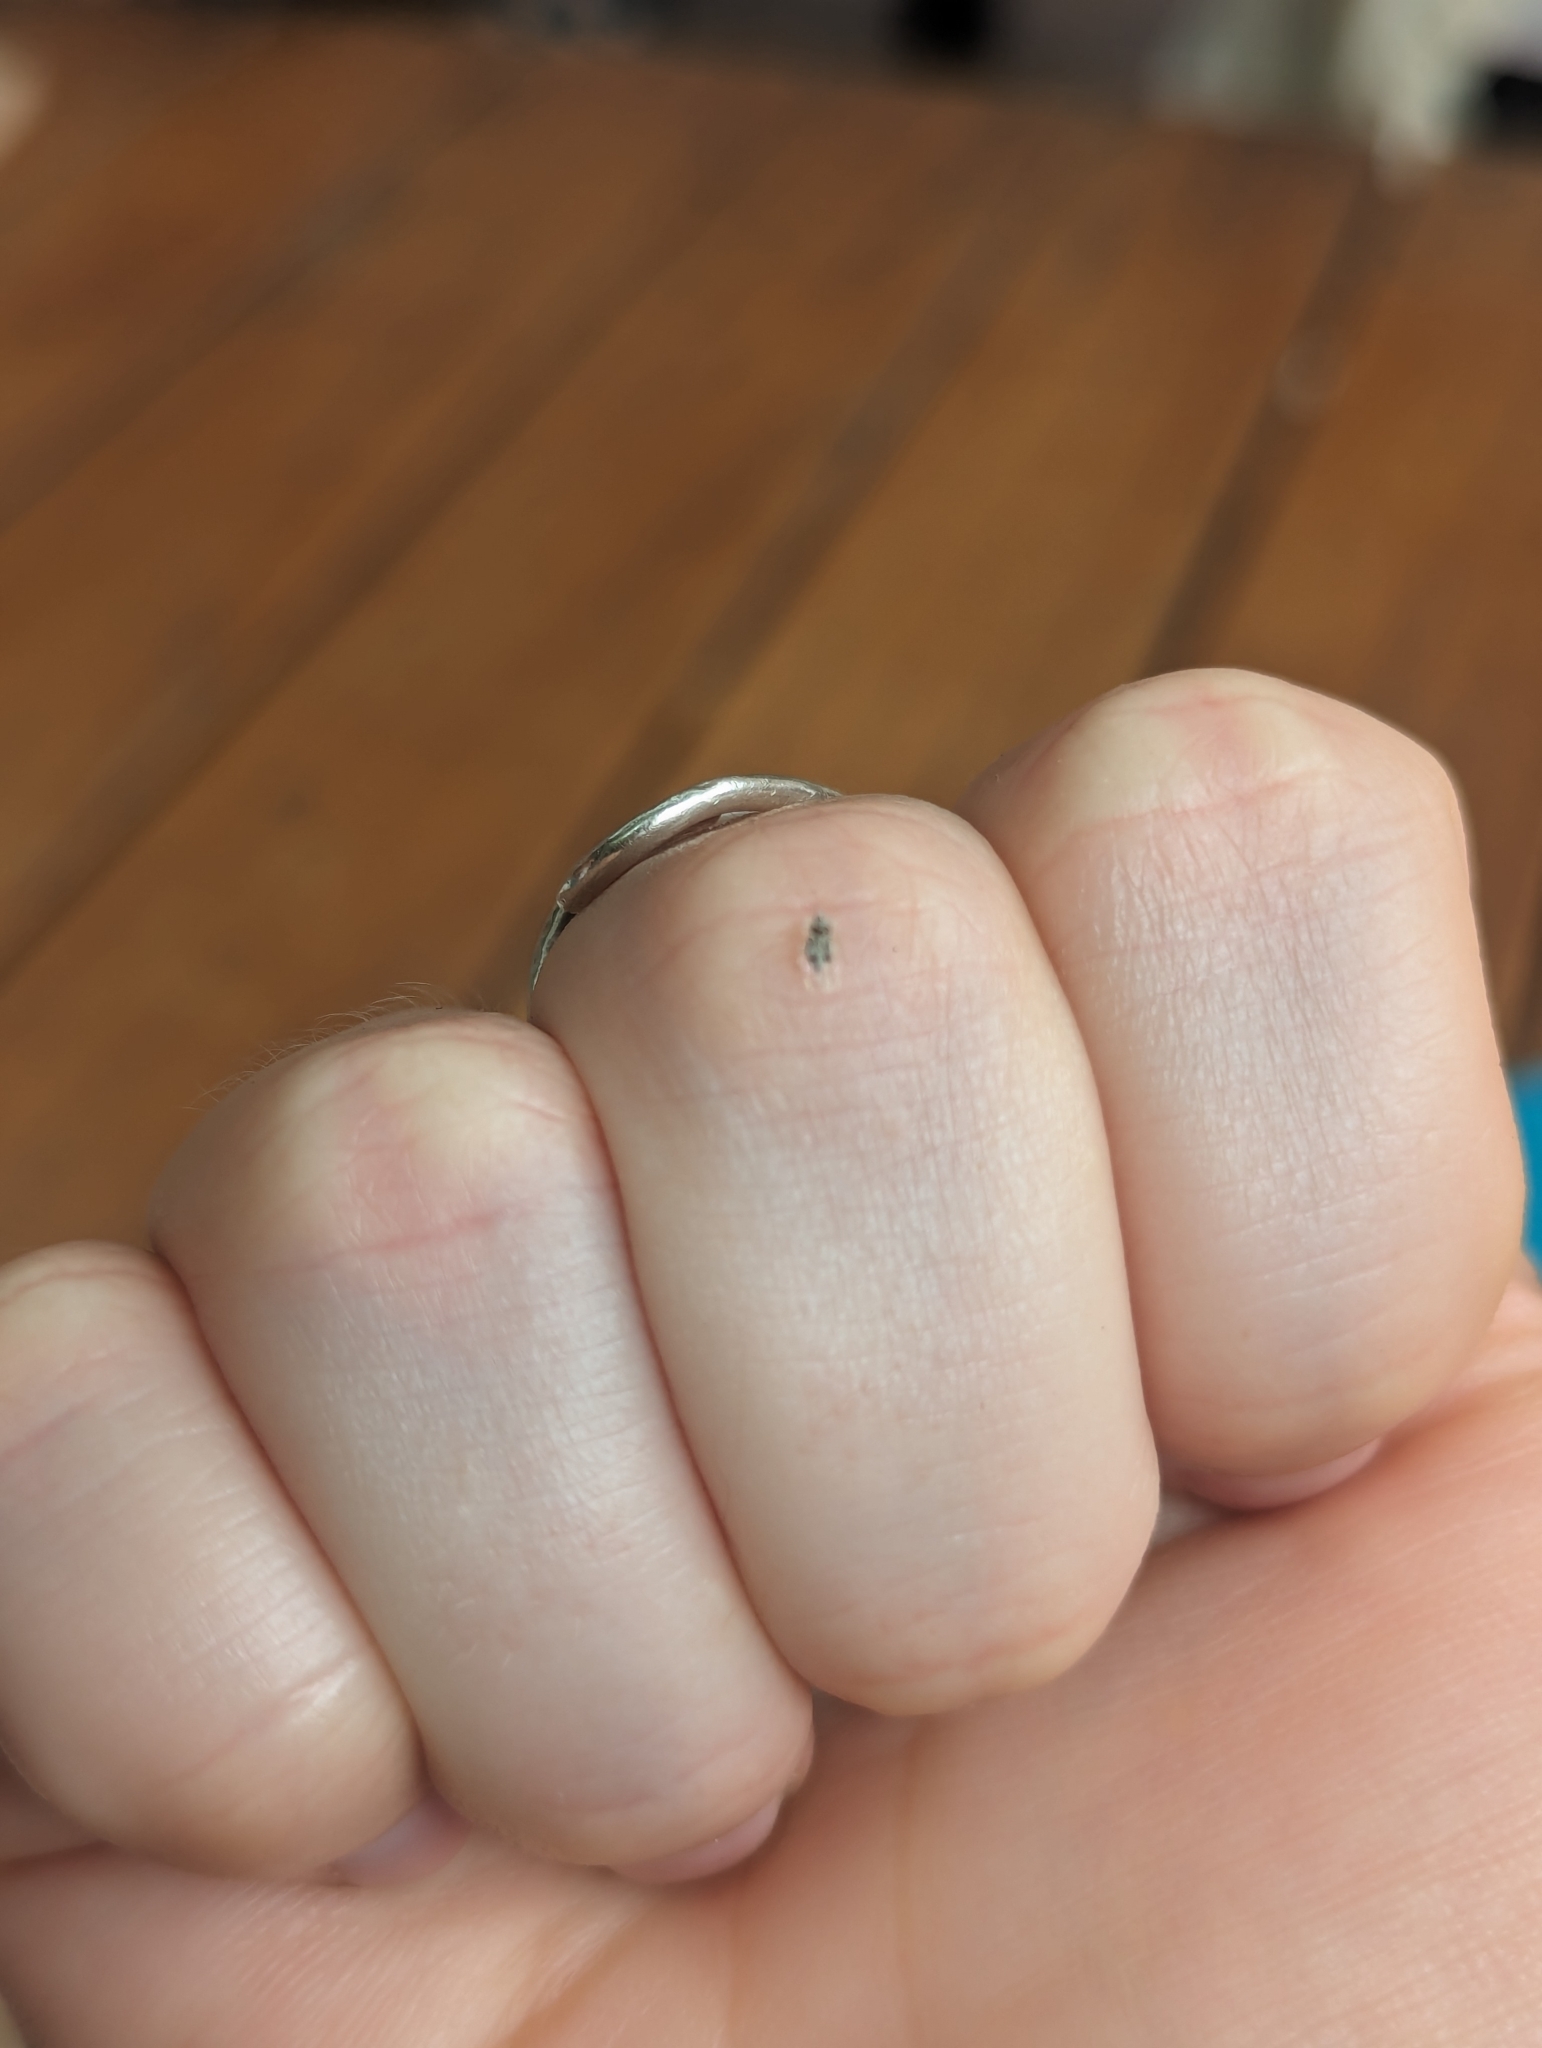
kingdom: Animalia
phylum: Arthropoda
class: Insecta
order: Hemiptera
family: Tingidae
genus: Corythucha
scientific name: Corythucha ciliata
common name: Sycamore lace bug
